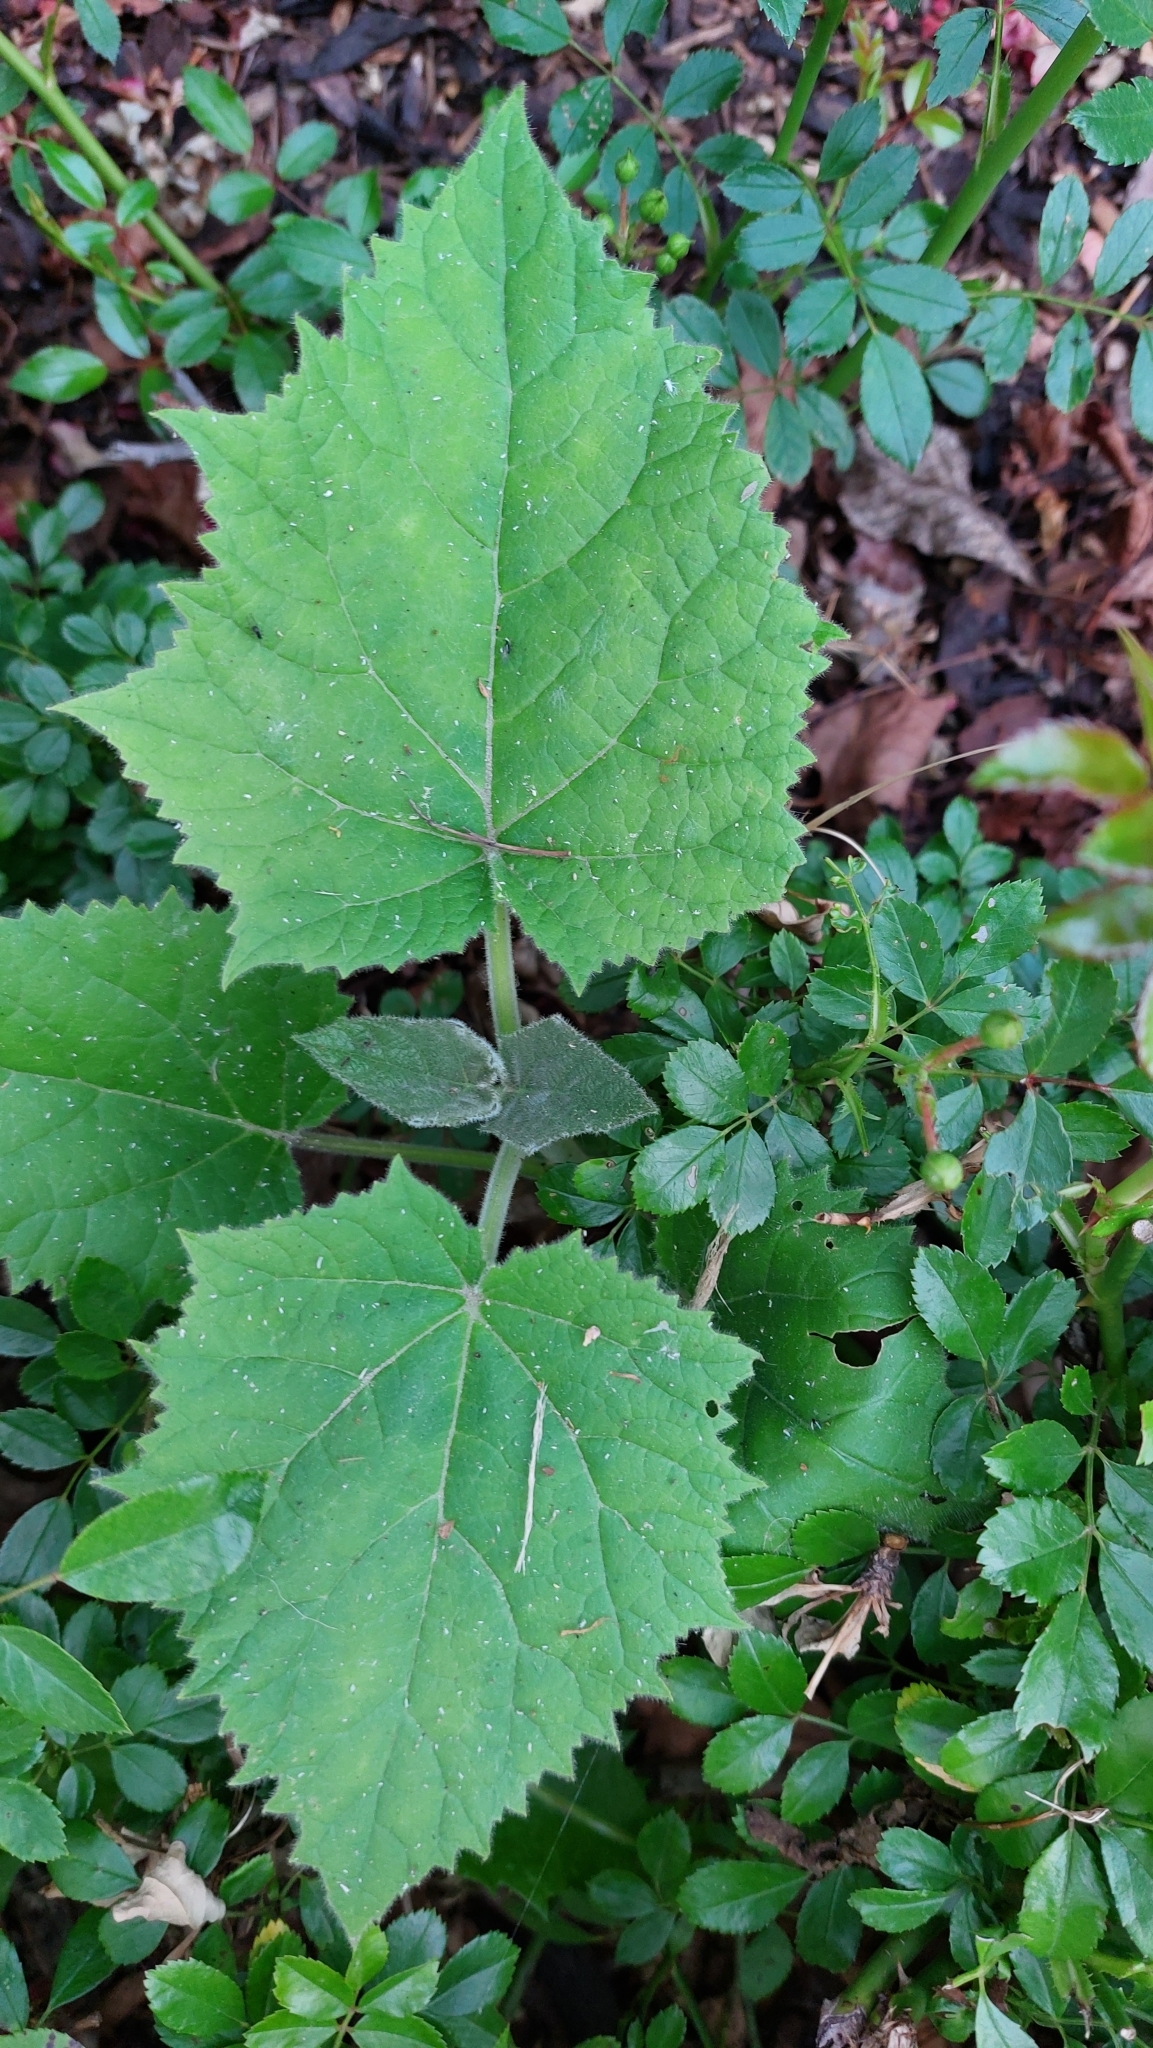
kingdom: Plantae
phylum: Tracheophyta
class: Magnoliopsida
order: Lamiales
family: Paulowniaceae
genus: Paulownia
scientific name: Paulownia tomentosa
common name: Foxglove-tree
